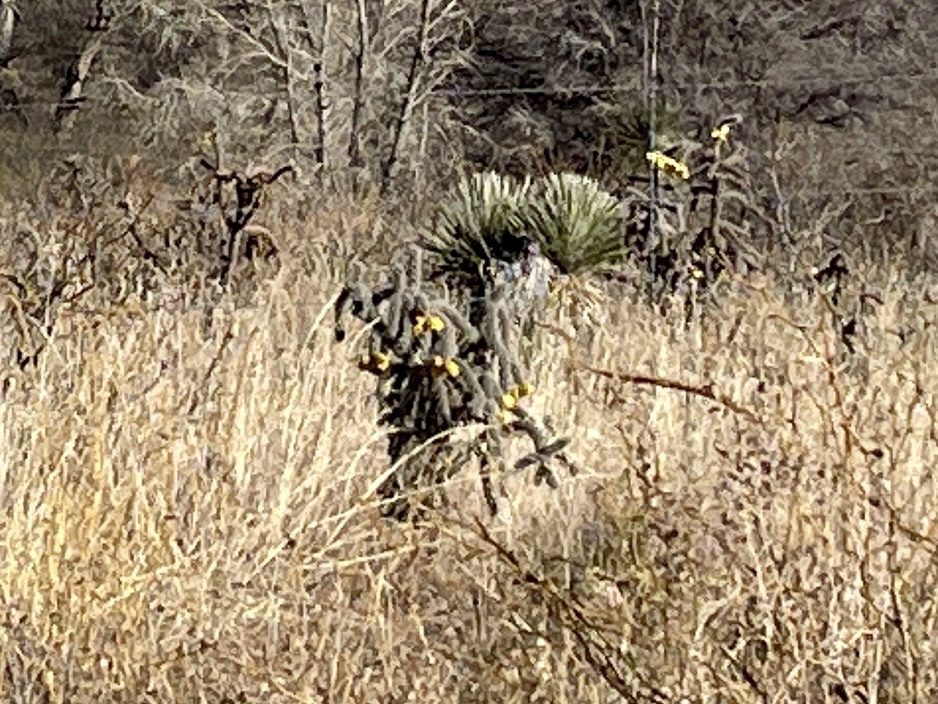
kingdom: Plantae
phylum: Tracheophyta
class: Liliopsida
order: Asparagales
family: Asparagaceae
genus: Yucca
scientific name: Yucca elata
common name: Palmella
